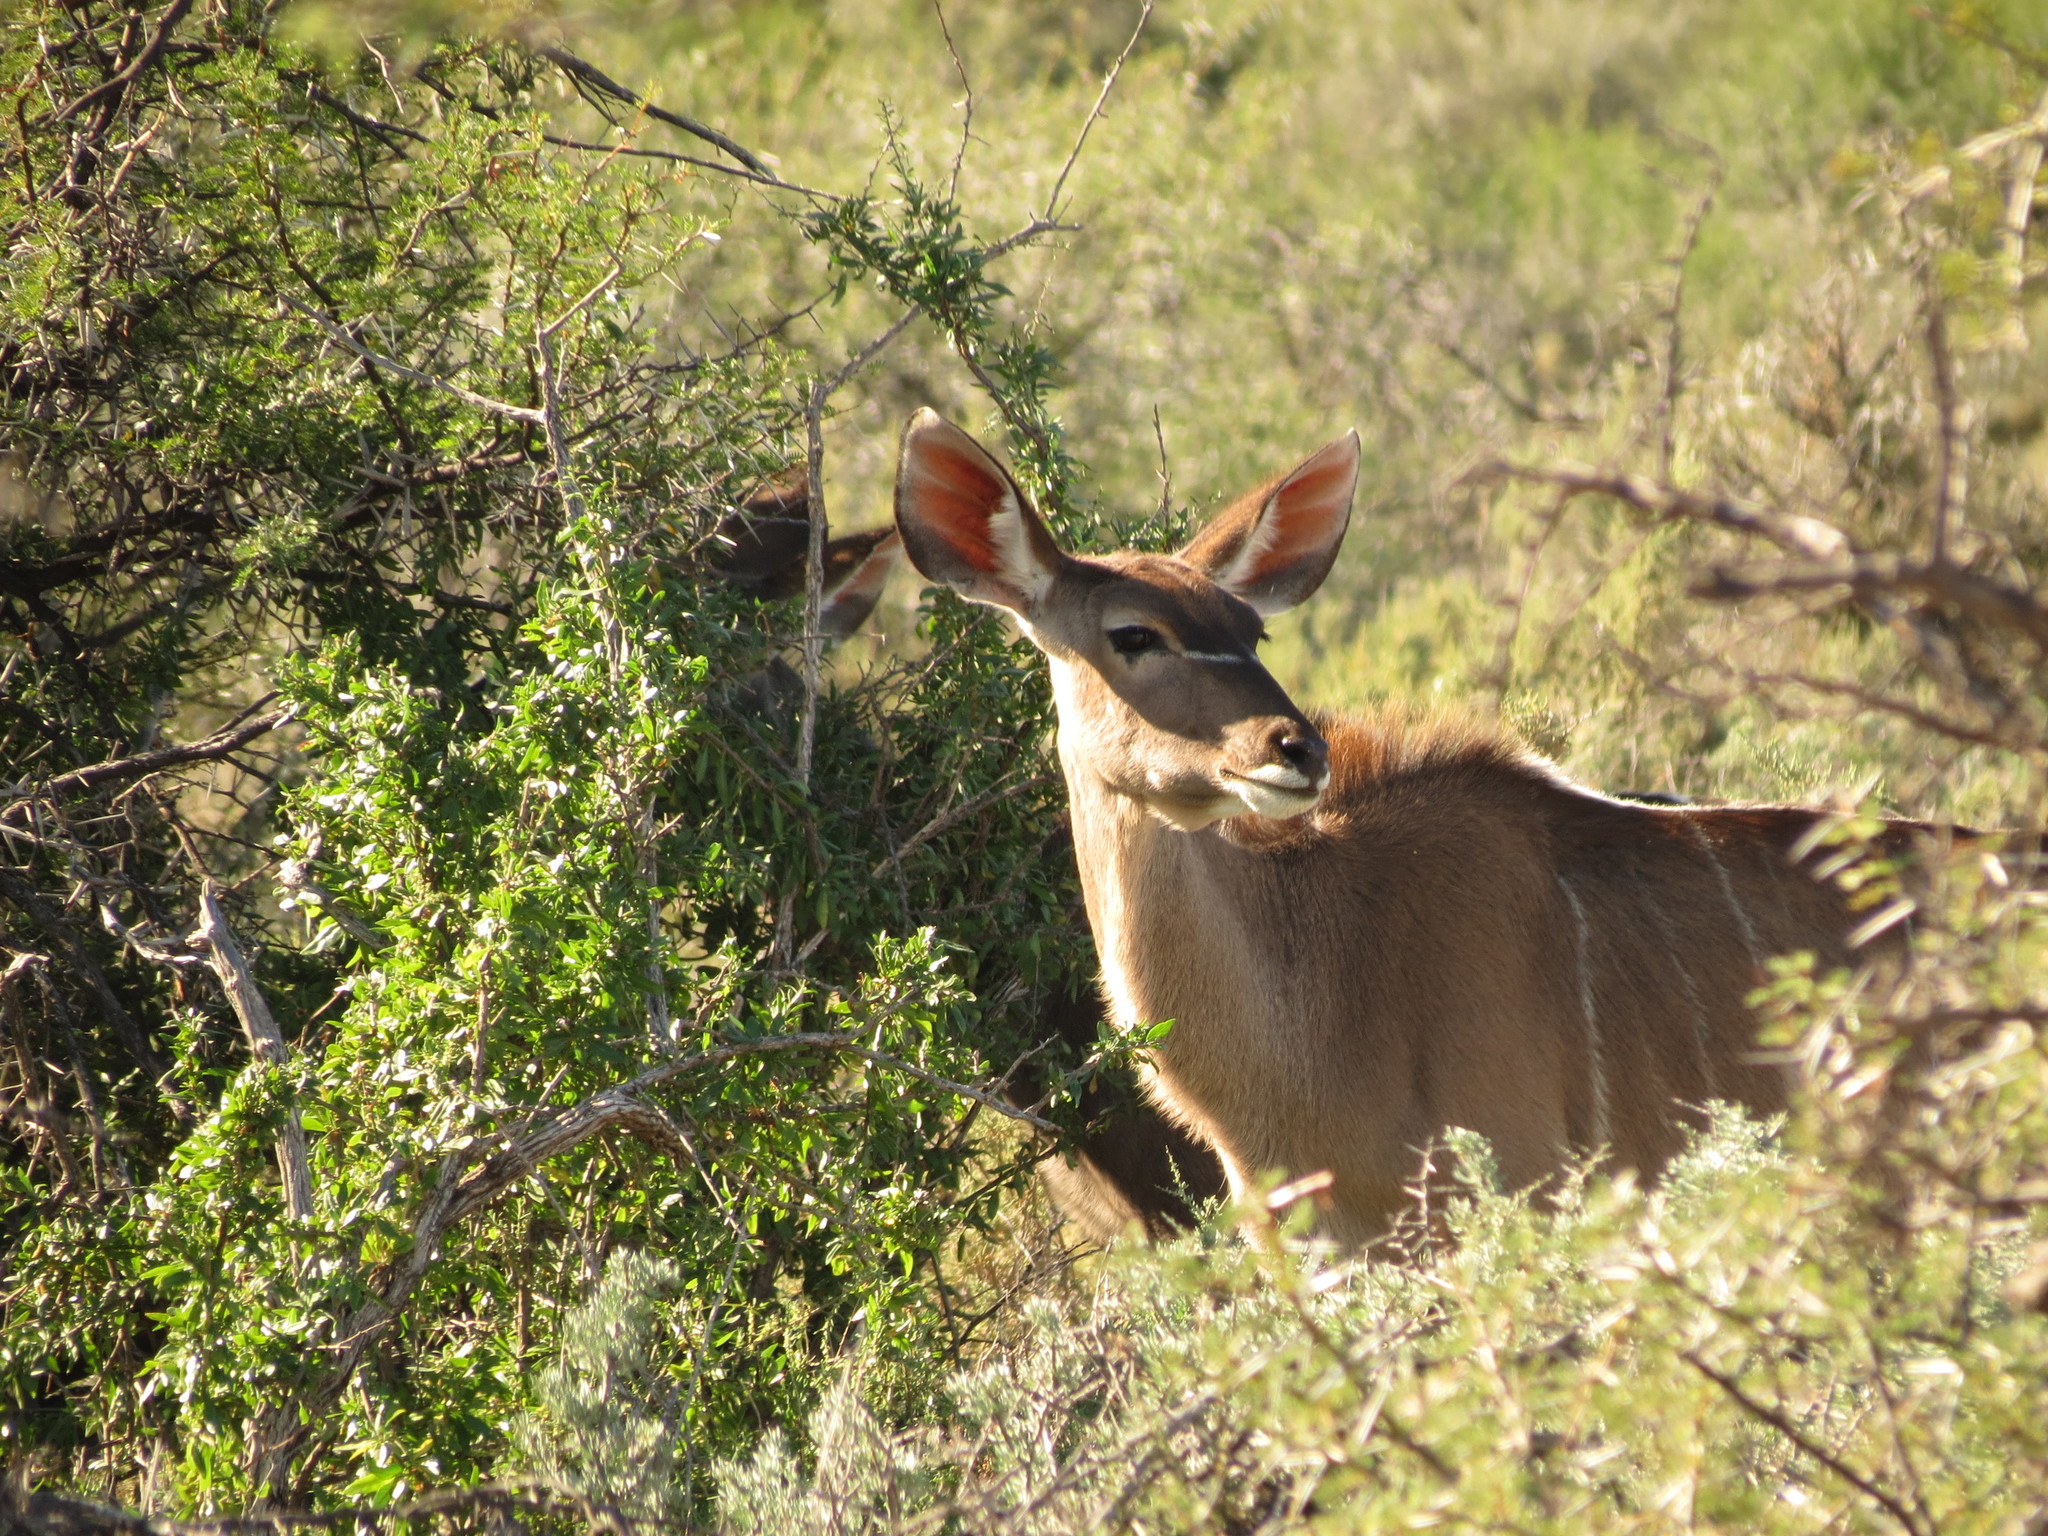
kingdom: Animalia
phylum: Chordata
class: Mammalia
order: Artiodactyla
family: Bovidae
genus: Tragelaphus
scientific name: Tragelaphus strepsiceros
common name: Greater kudu
